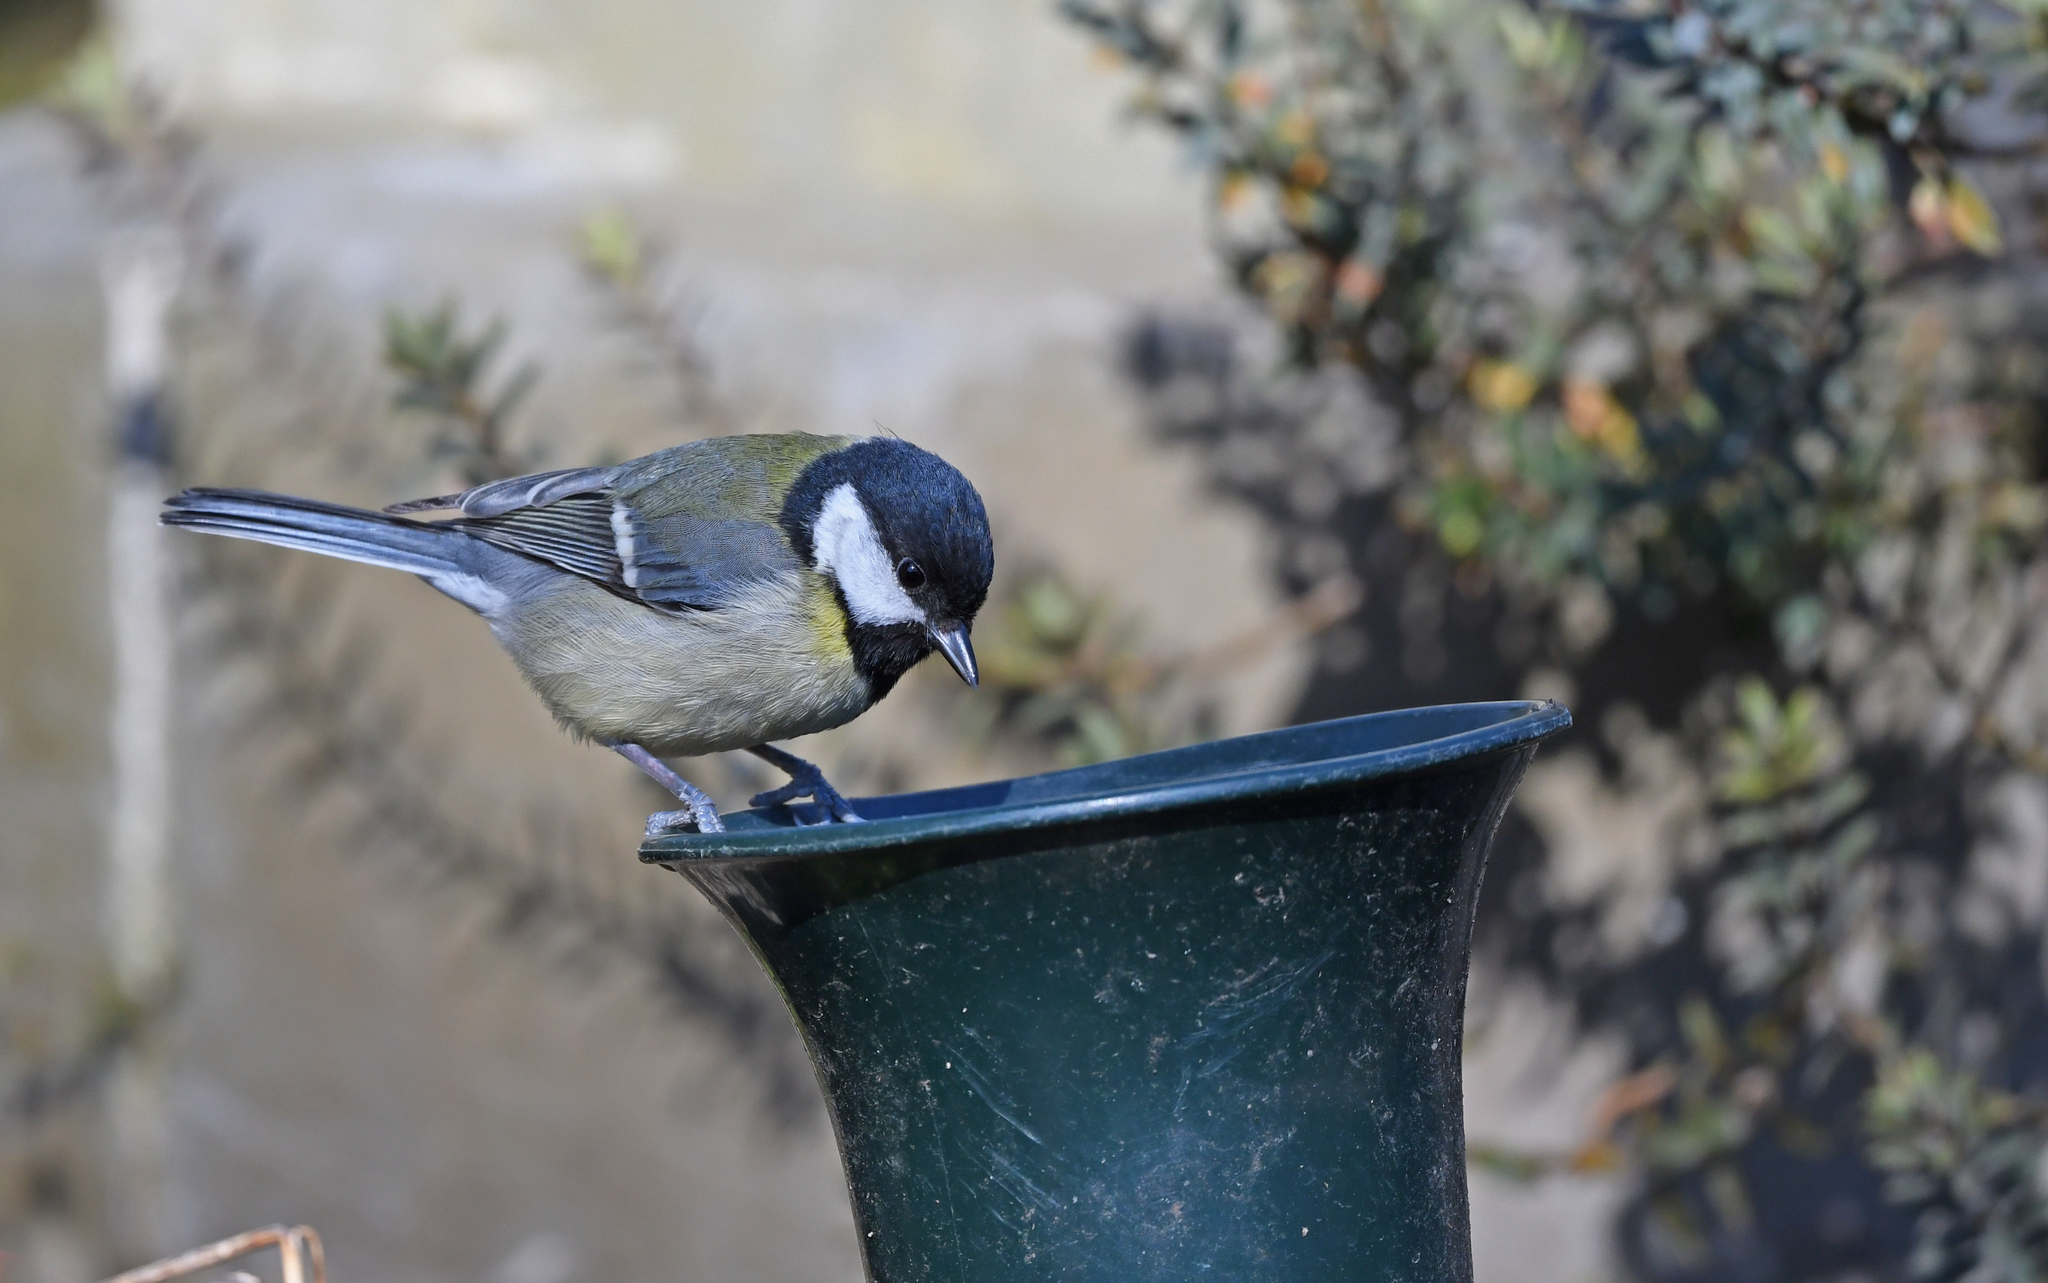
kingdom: Animalia
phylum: Chordata
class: Aves
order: Passeriformes
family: Paridae
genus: Parus
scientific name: Parus major
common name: Great tit
